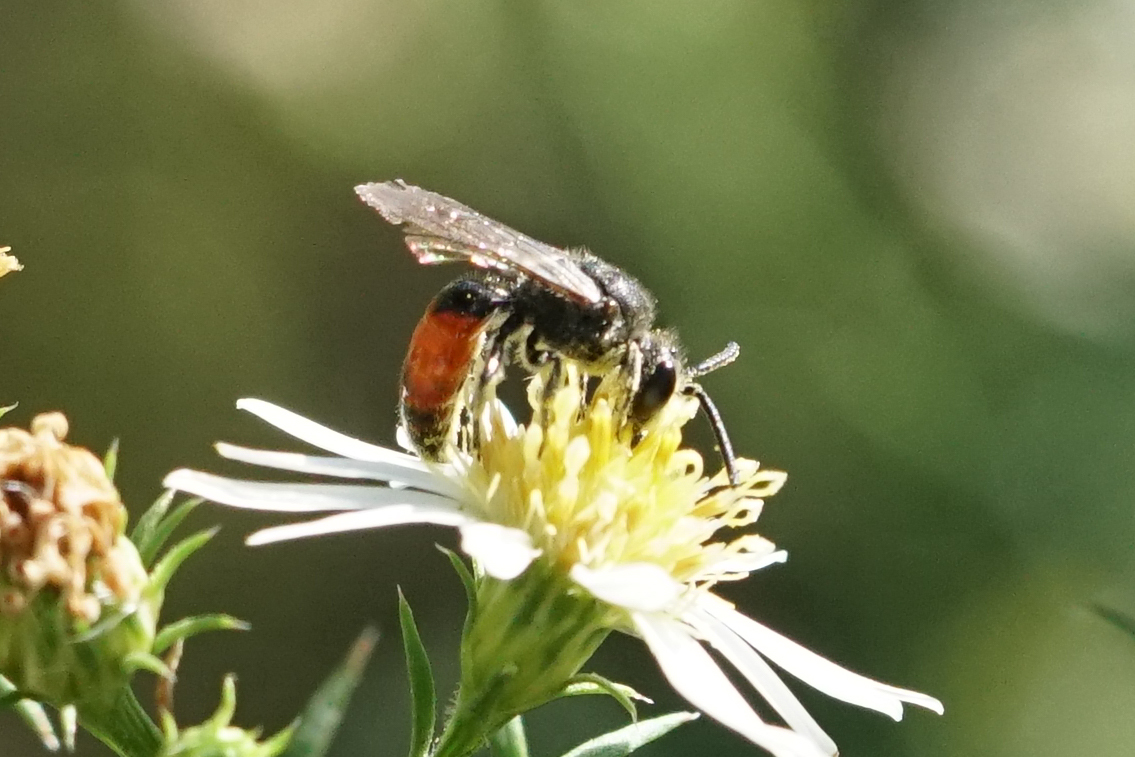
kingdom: Animalia
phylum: Arthropoda
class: Insecta
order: Hymenoptera
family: Halictidae
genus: Sphecodes
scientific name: Sphecodes davisii
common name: Davis's cuckoo sweat bee
